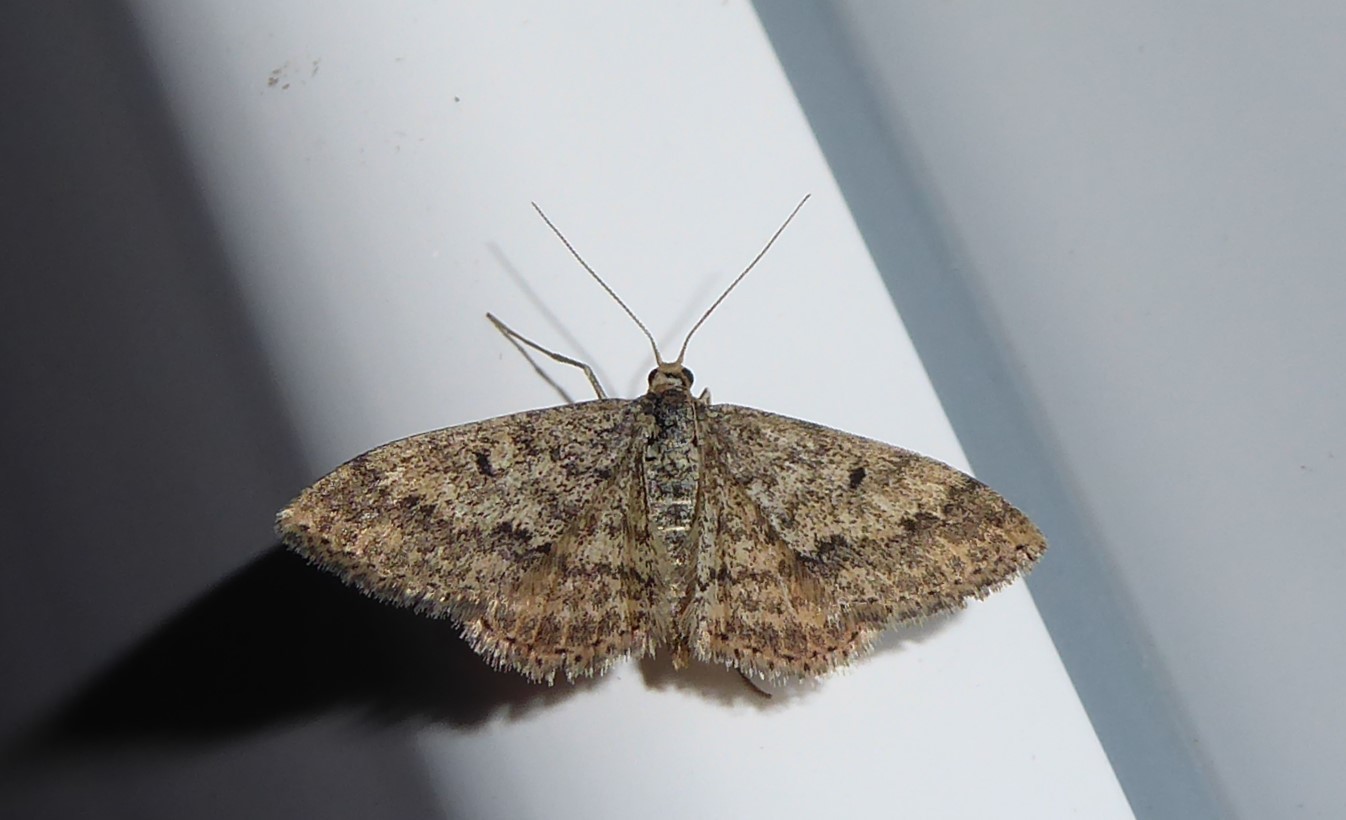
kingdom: Animalia
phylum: Arthropoda
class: Insecta
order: Lepidoptera
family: Geometridae
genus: Scopula
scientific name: Scopula rubraria
